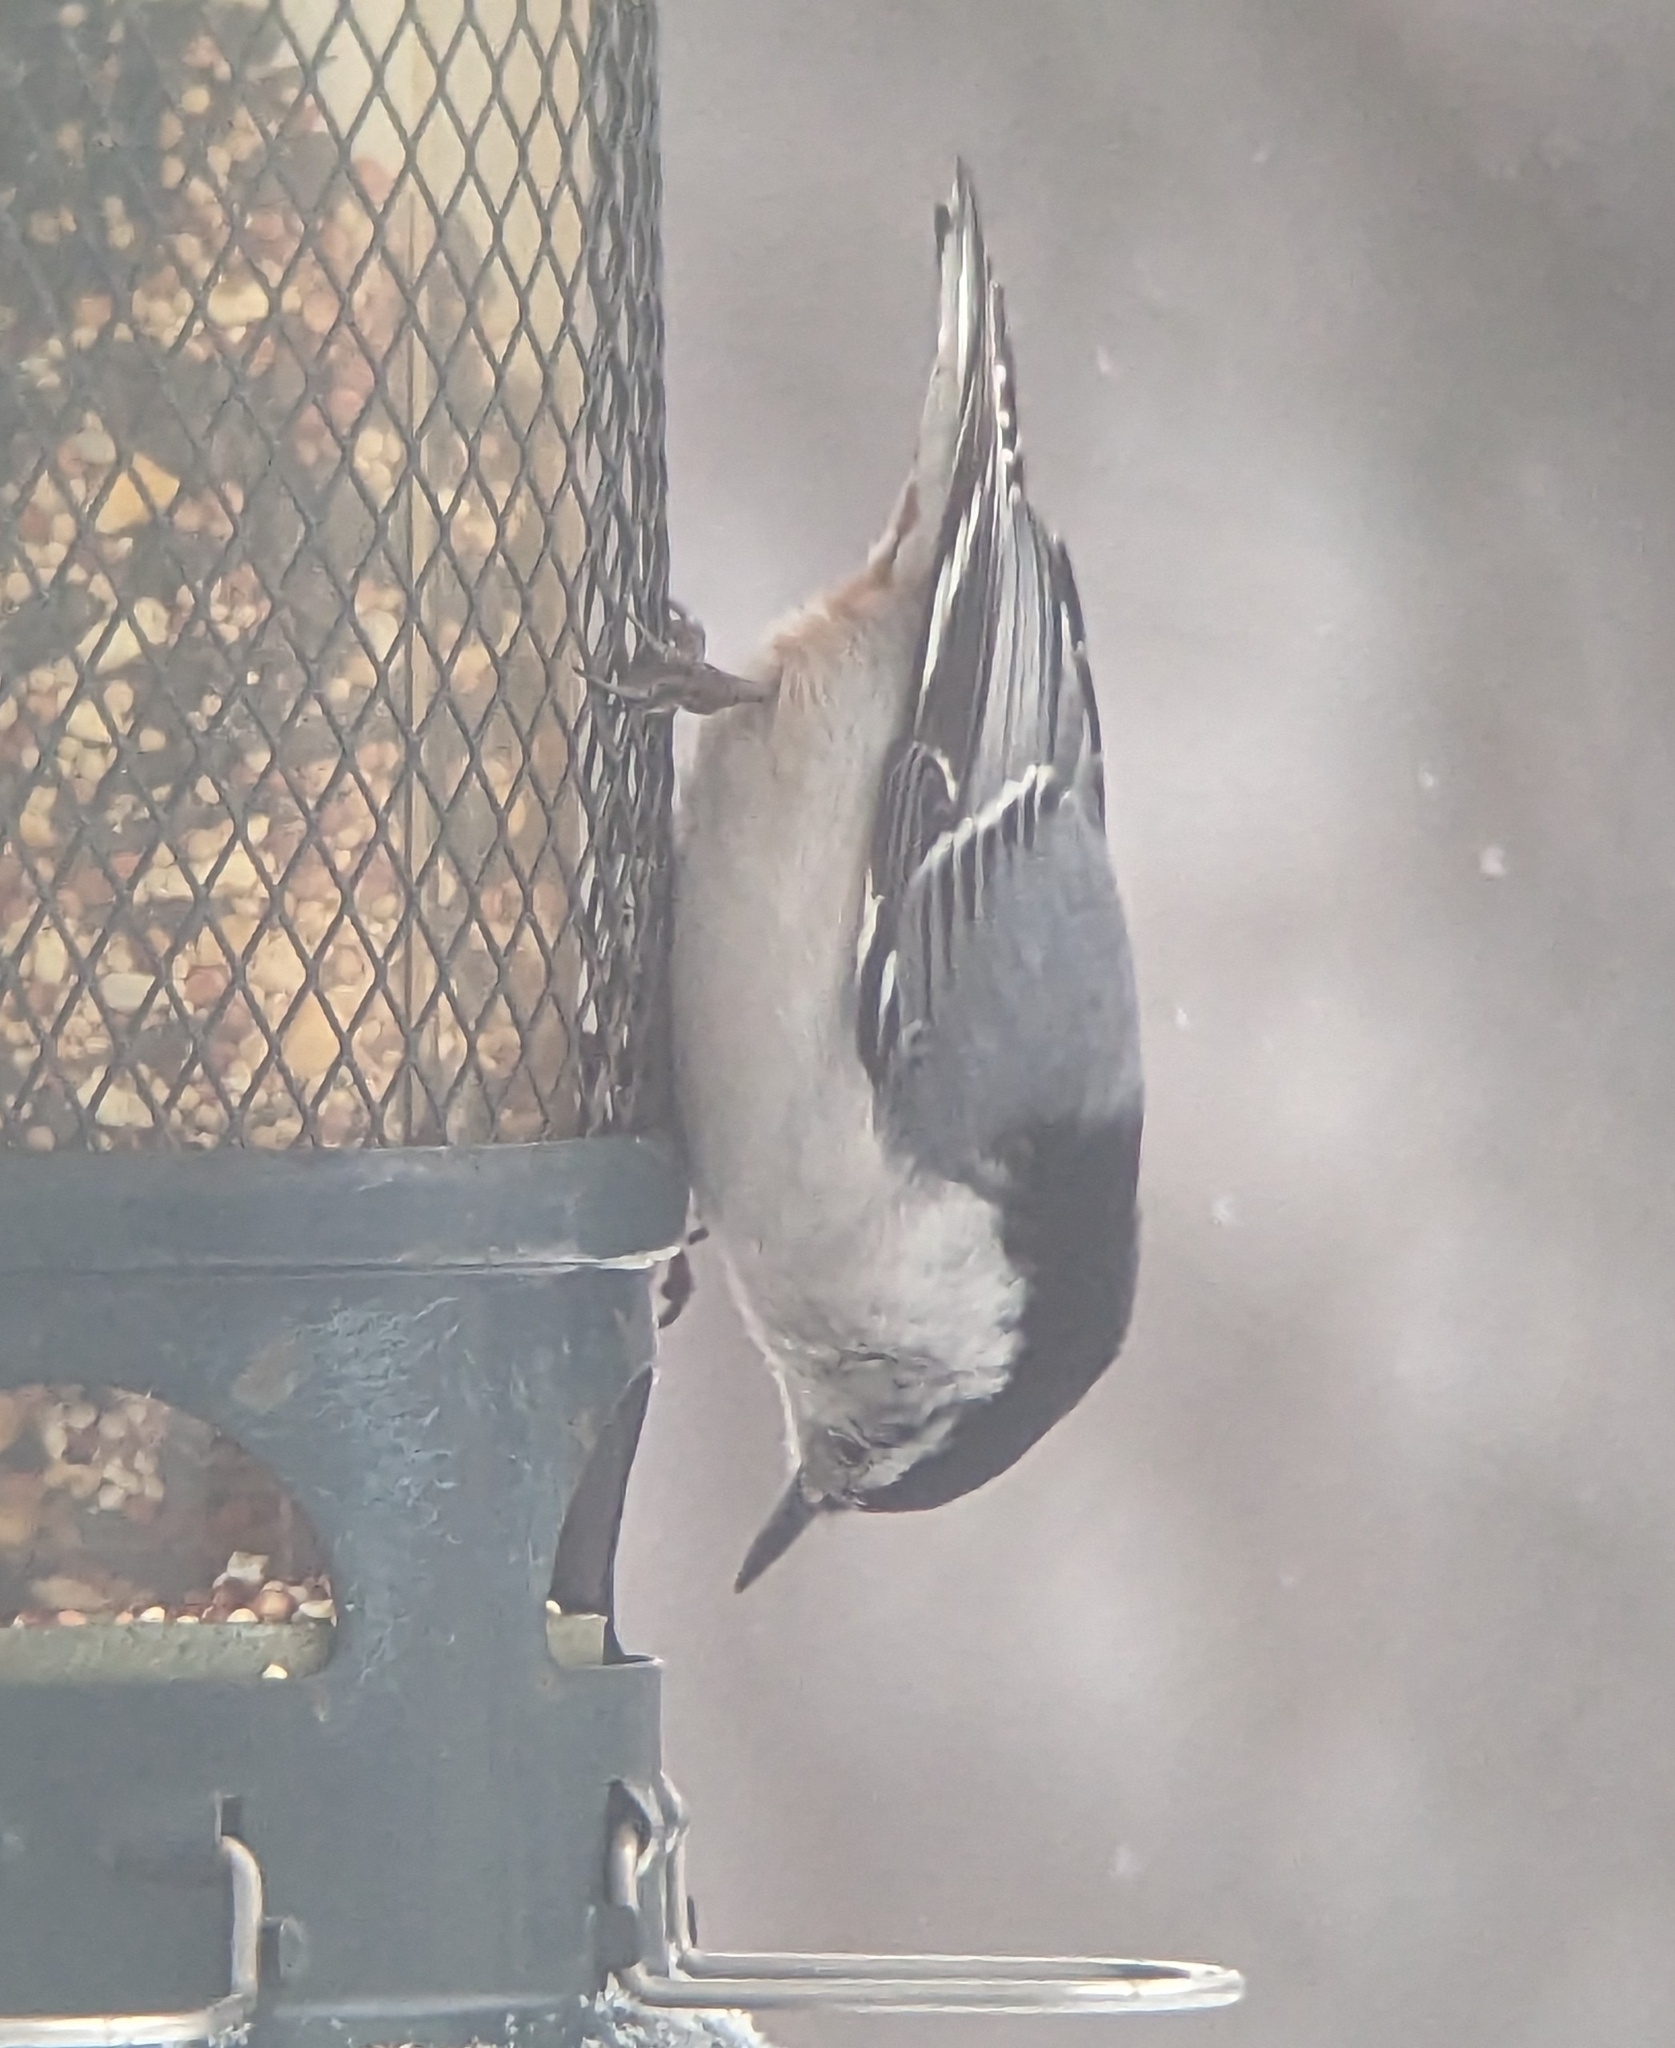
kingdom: Animalia
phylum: Chordata
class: Aves
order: Passeriformes
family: Sittidae
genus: Sitta
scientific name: Sitta carolinensis
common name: White-breasted nuthatch
